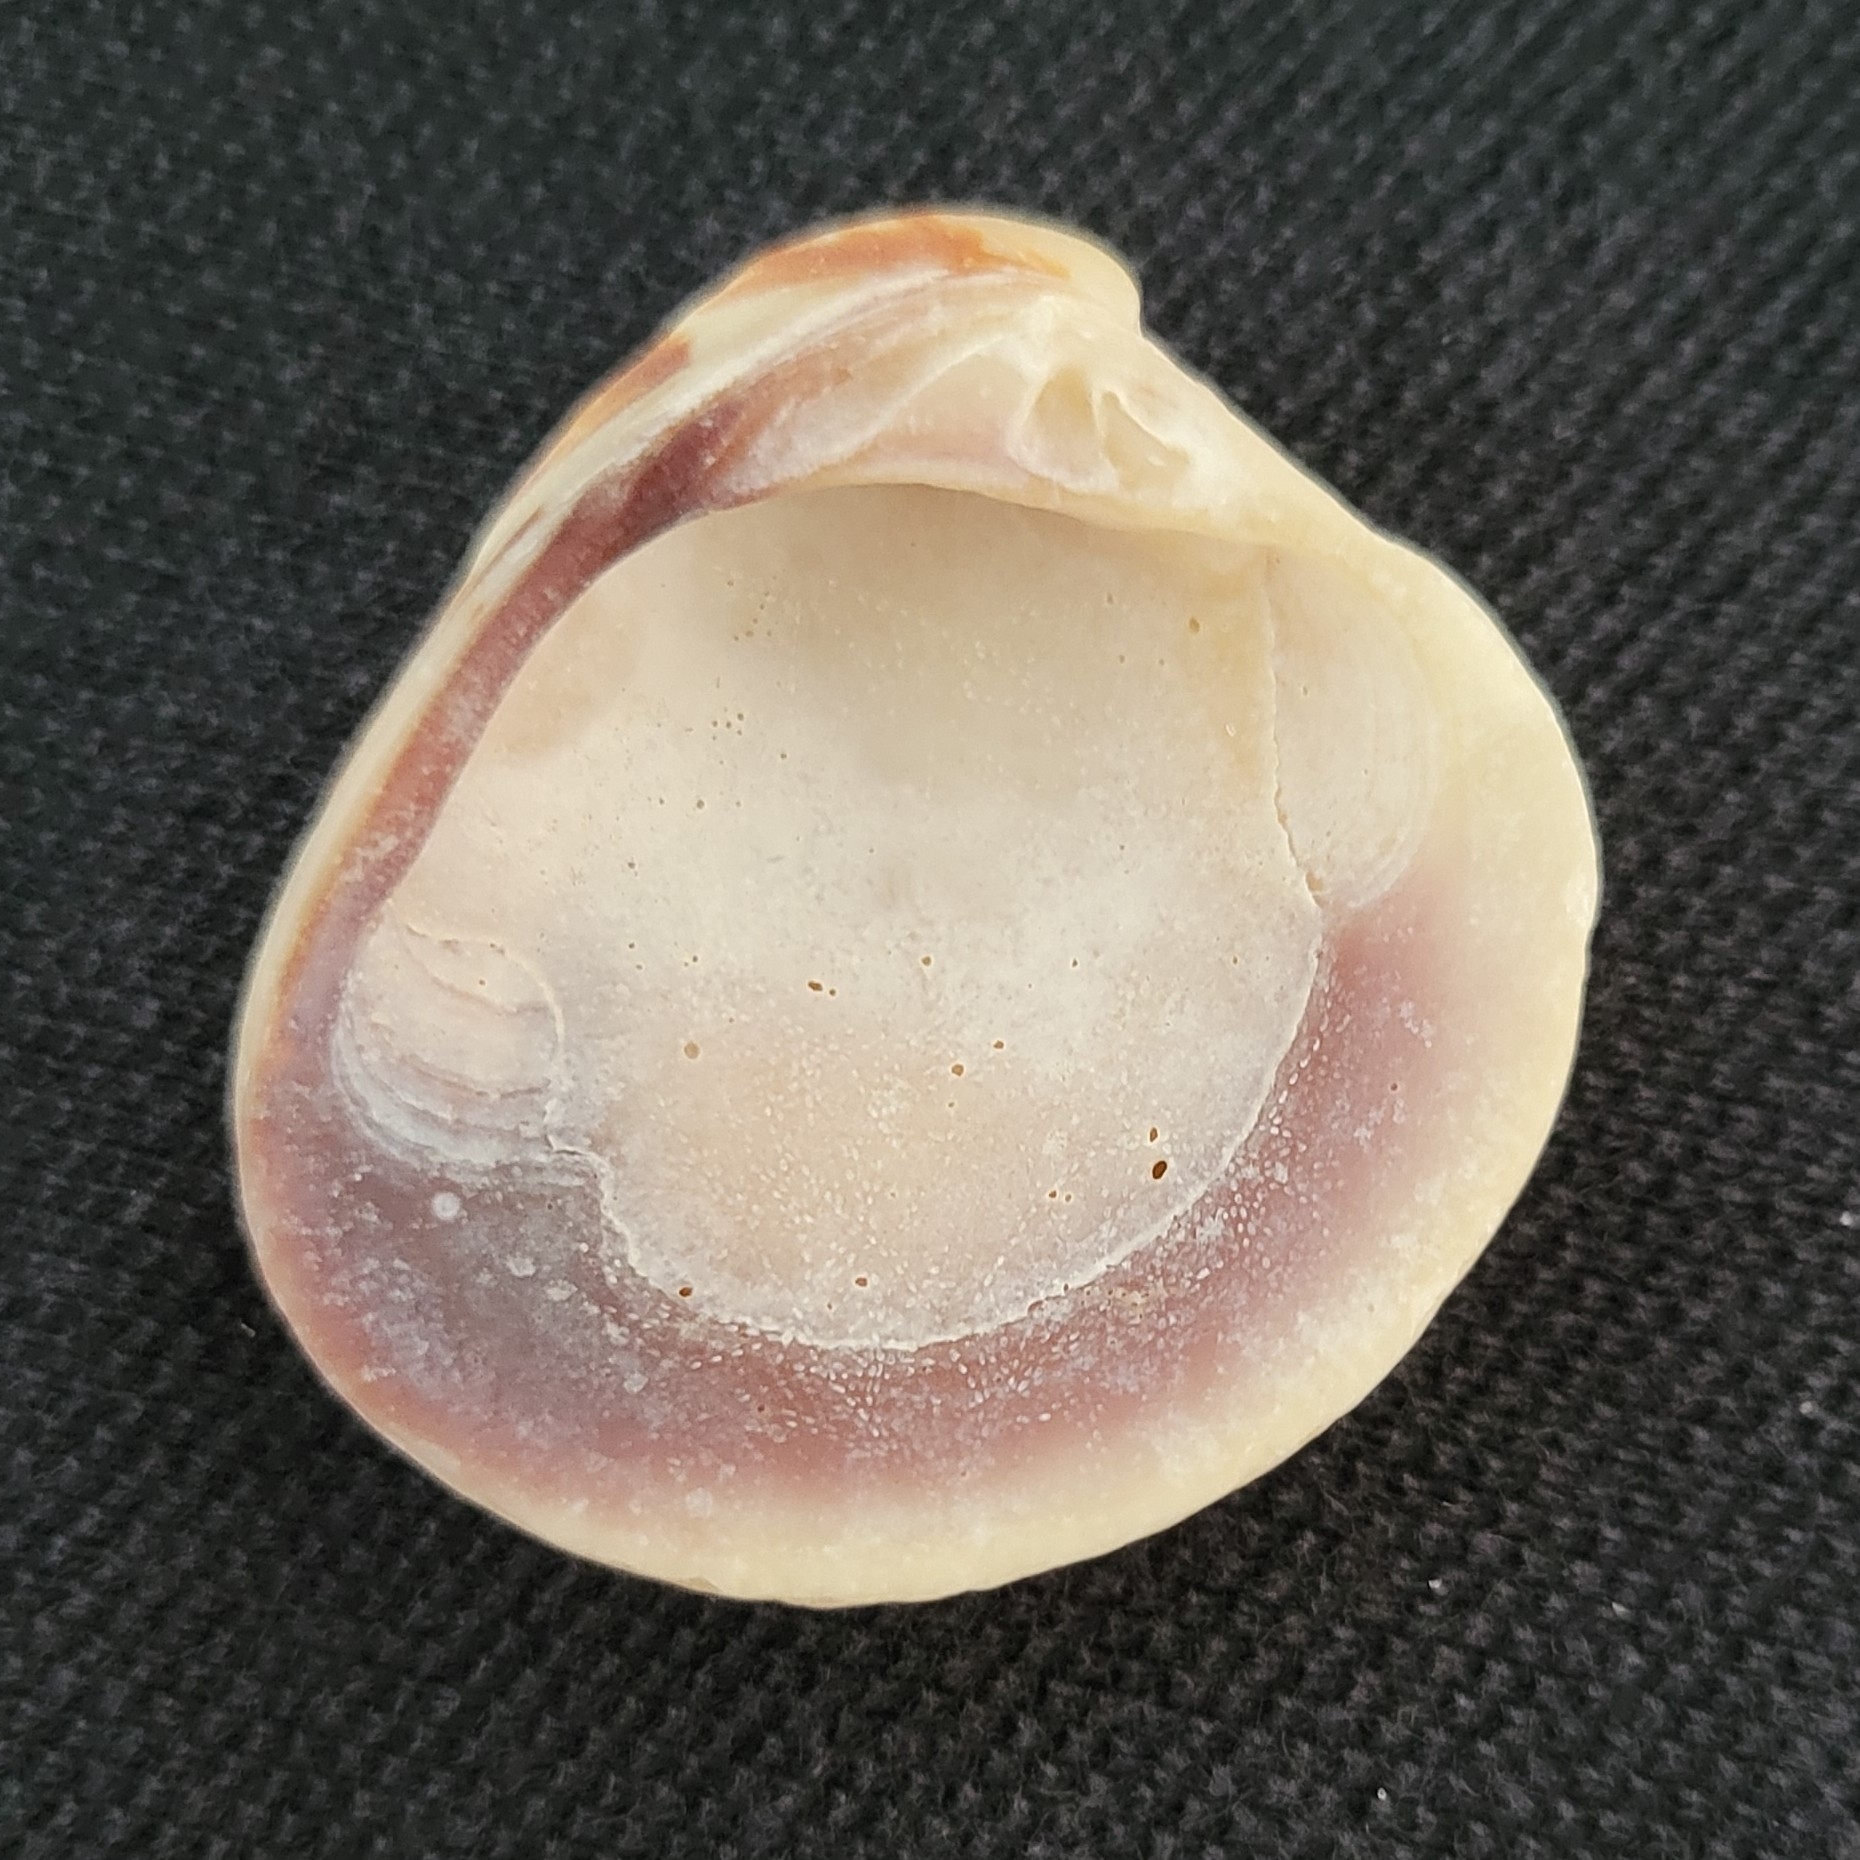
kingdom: Animalia
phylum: Mollusca
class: Bivalvia
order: Venerida
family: Veneridae
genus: Chione
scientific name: Chione elevata
